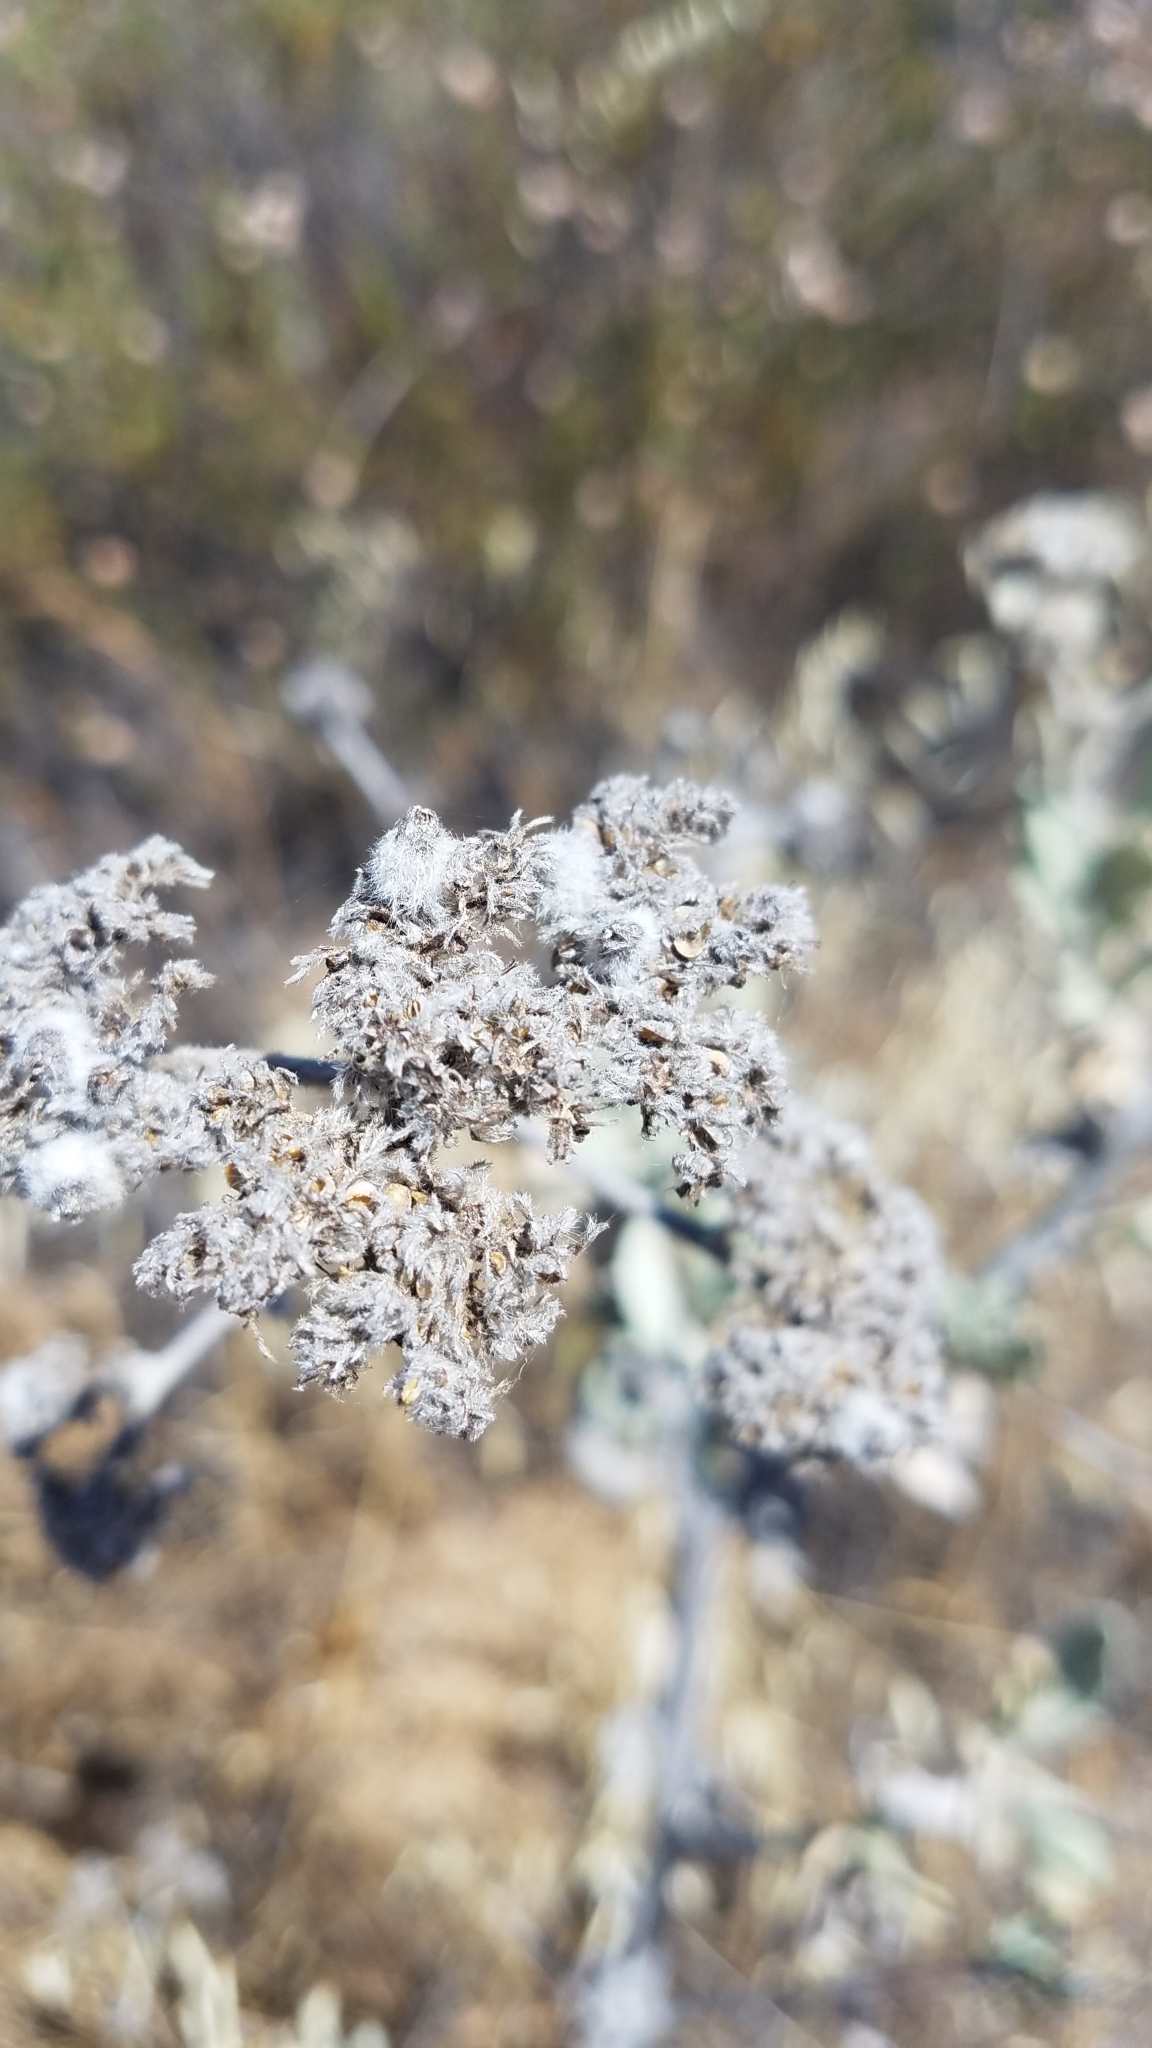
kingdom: Plantae
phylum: Tracheophyta
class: Magnoliopsida
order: Boraginales
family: Namaceae
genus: Eriodictyon
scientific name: Eriodictyon tomentosum
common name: Woolly yerba-santa
